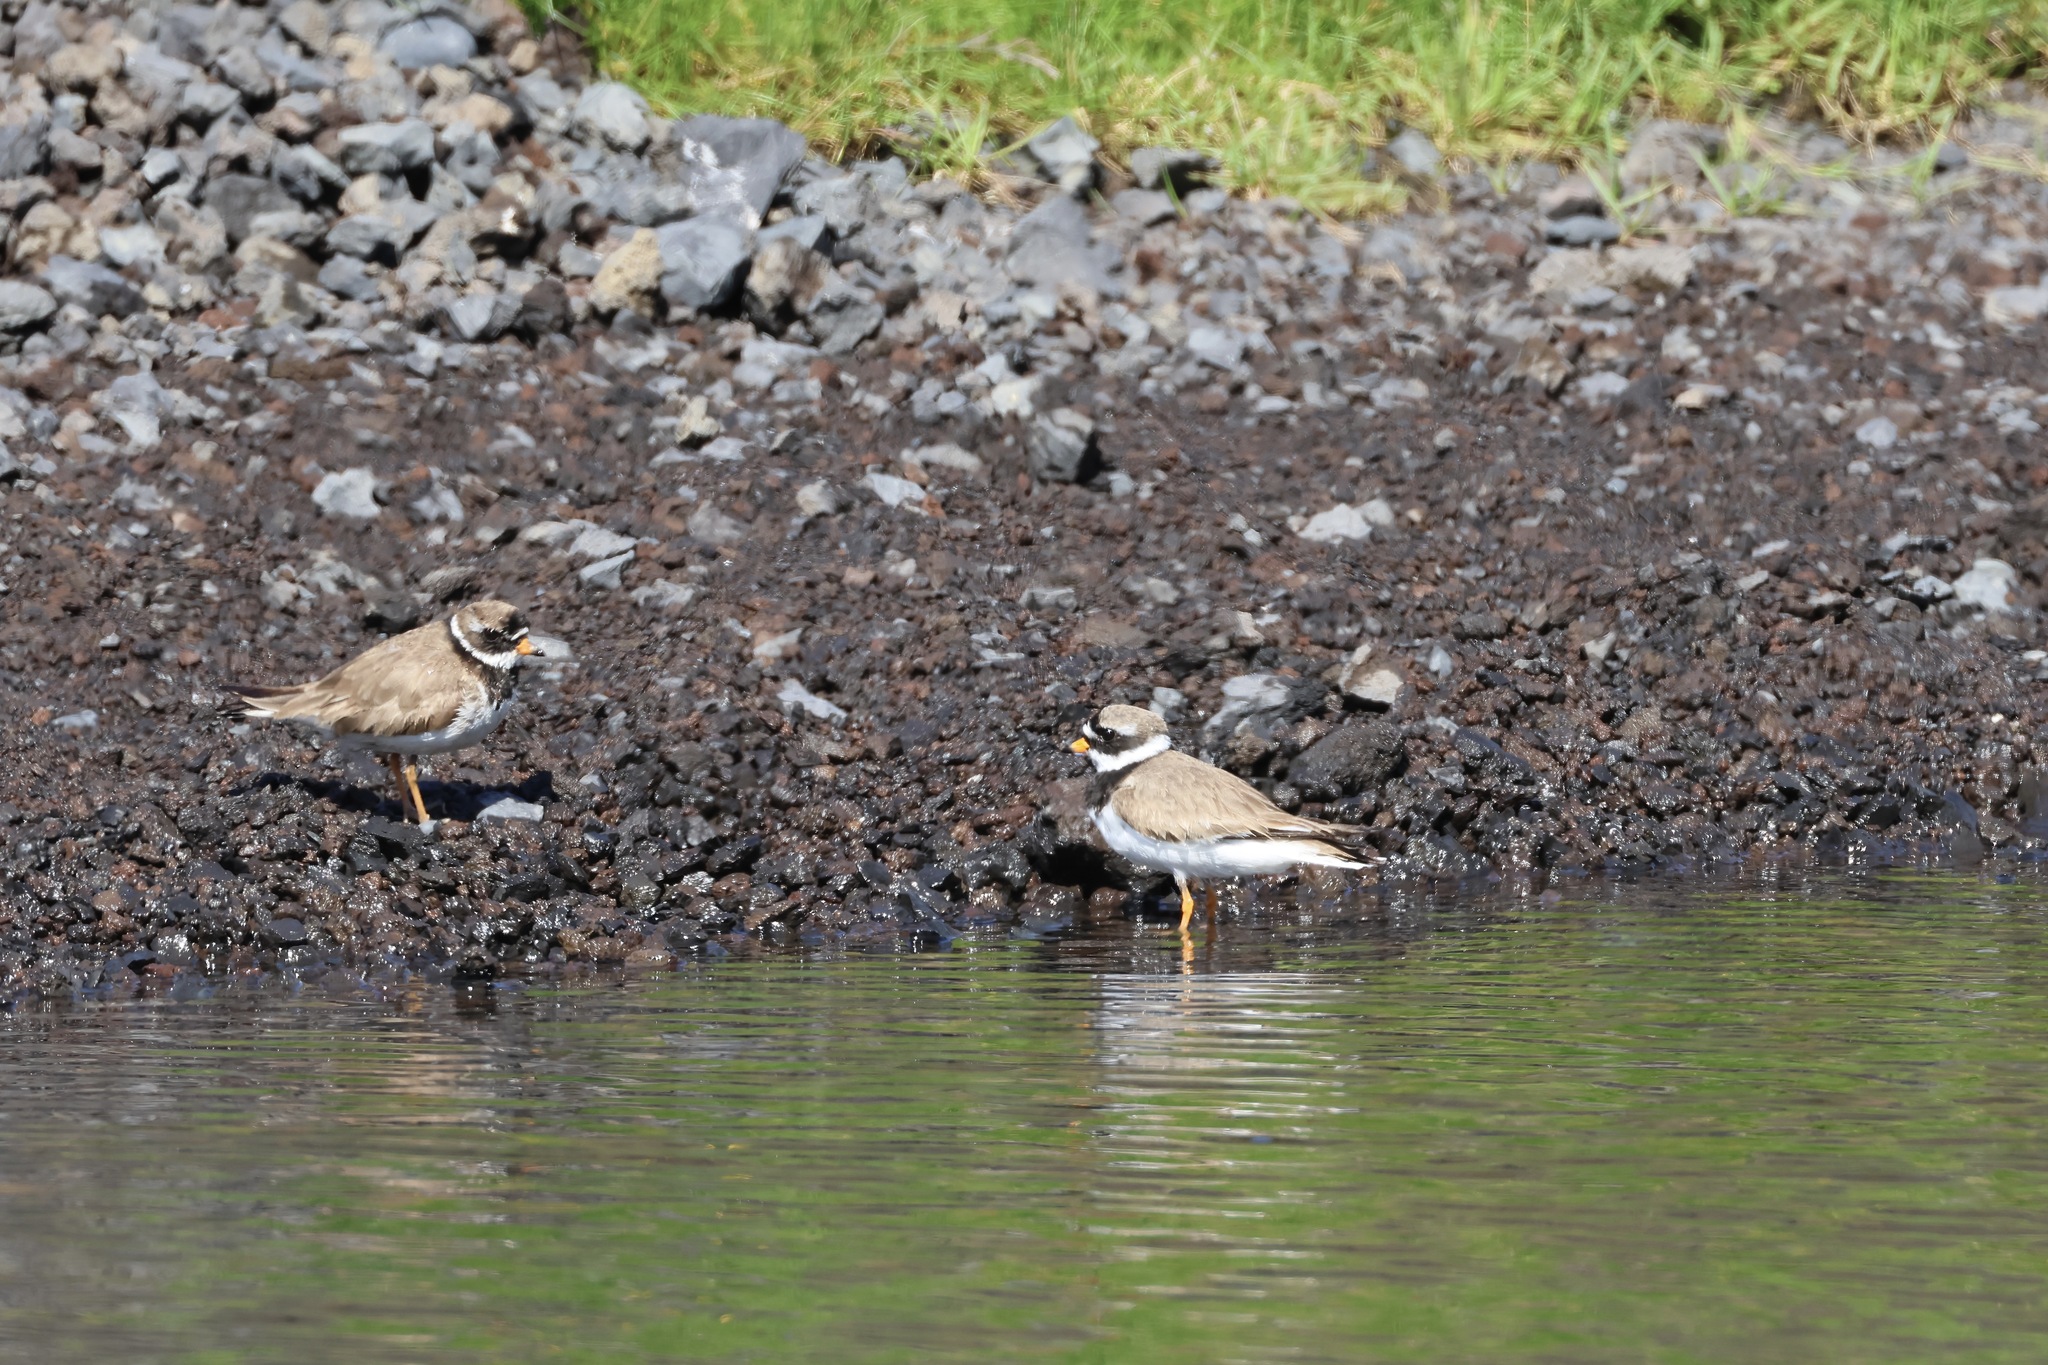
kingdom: Animalia
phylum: Chordata
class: Aves
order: Charadriiformes
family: Charadriidae
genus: Charadrius
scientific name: Charadrius hiaticula
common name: Common ringed plover
